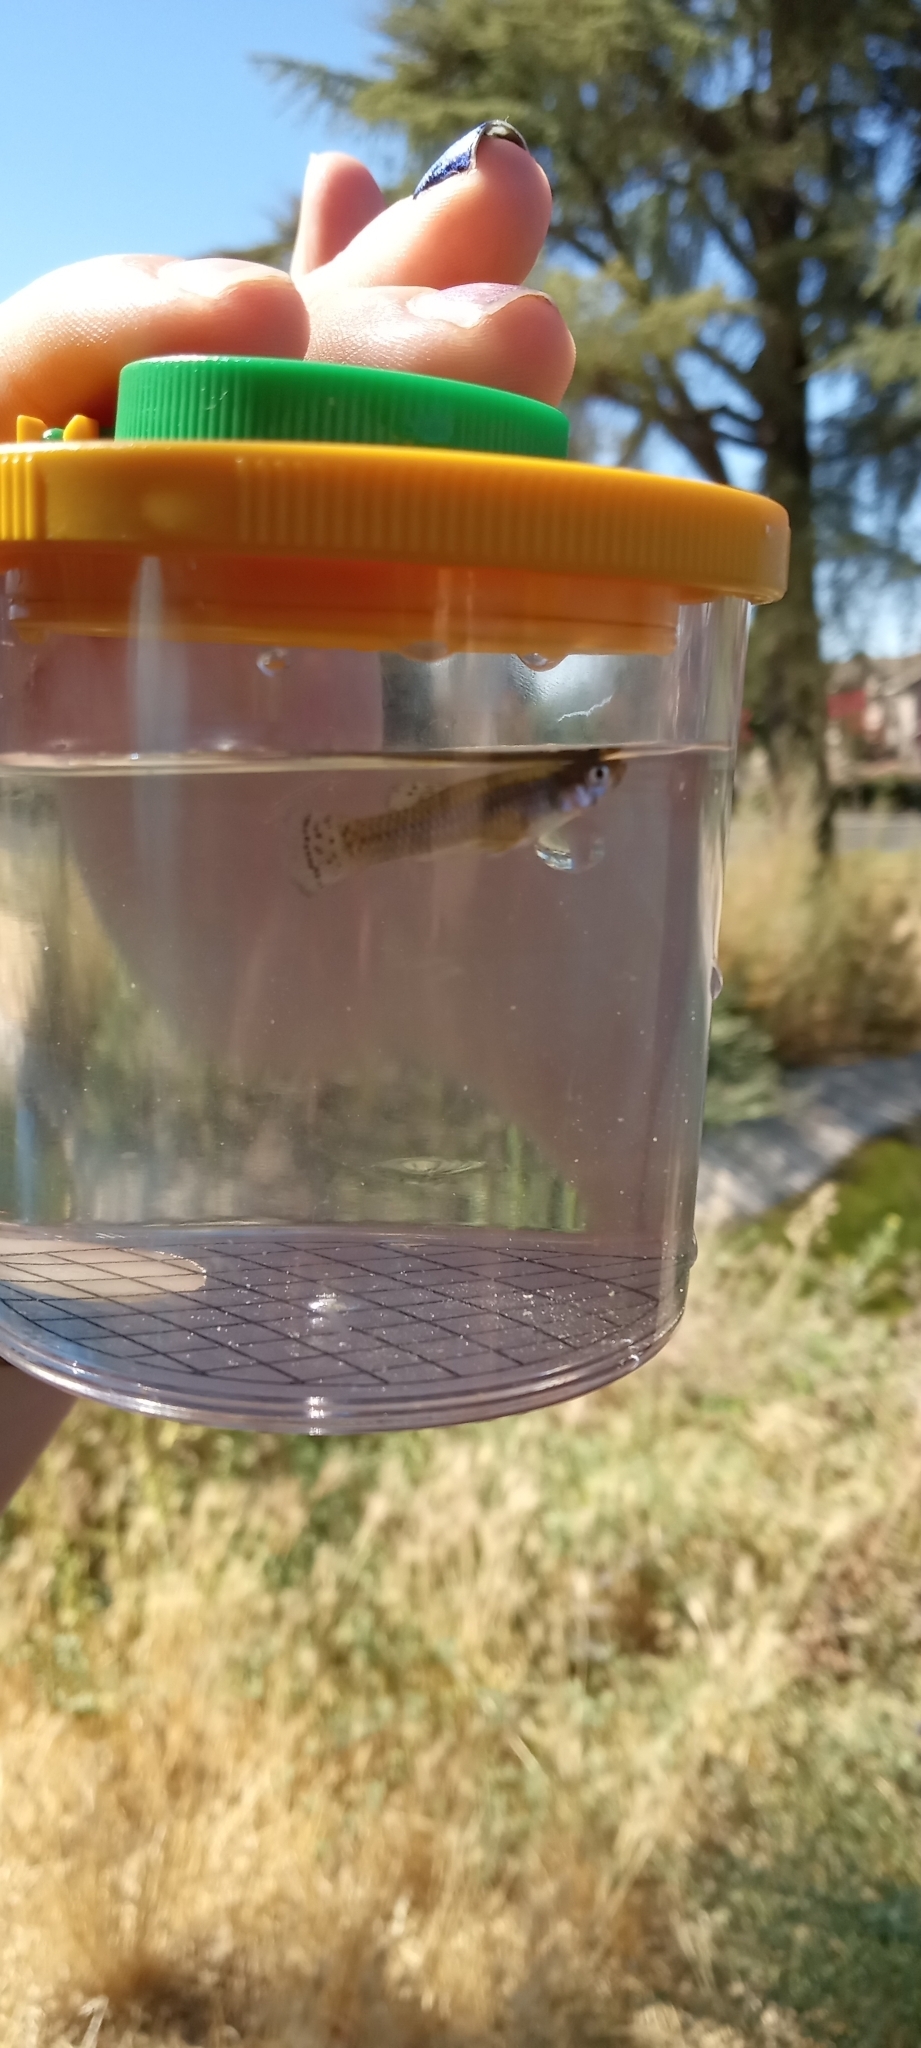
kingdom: Animalia
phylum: Chordata
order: Cyprinodontiformes
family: Poeciliidae
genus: Gambusia
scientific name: Gambusia affinis
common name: Mosquitofish
